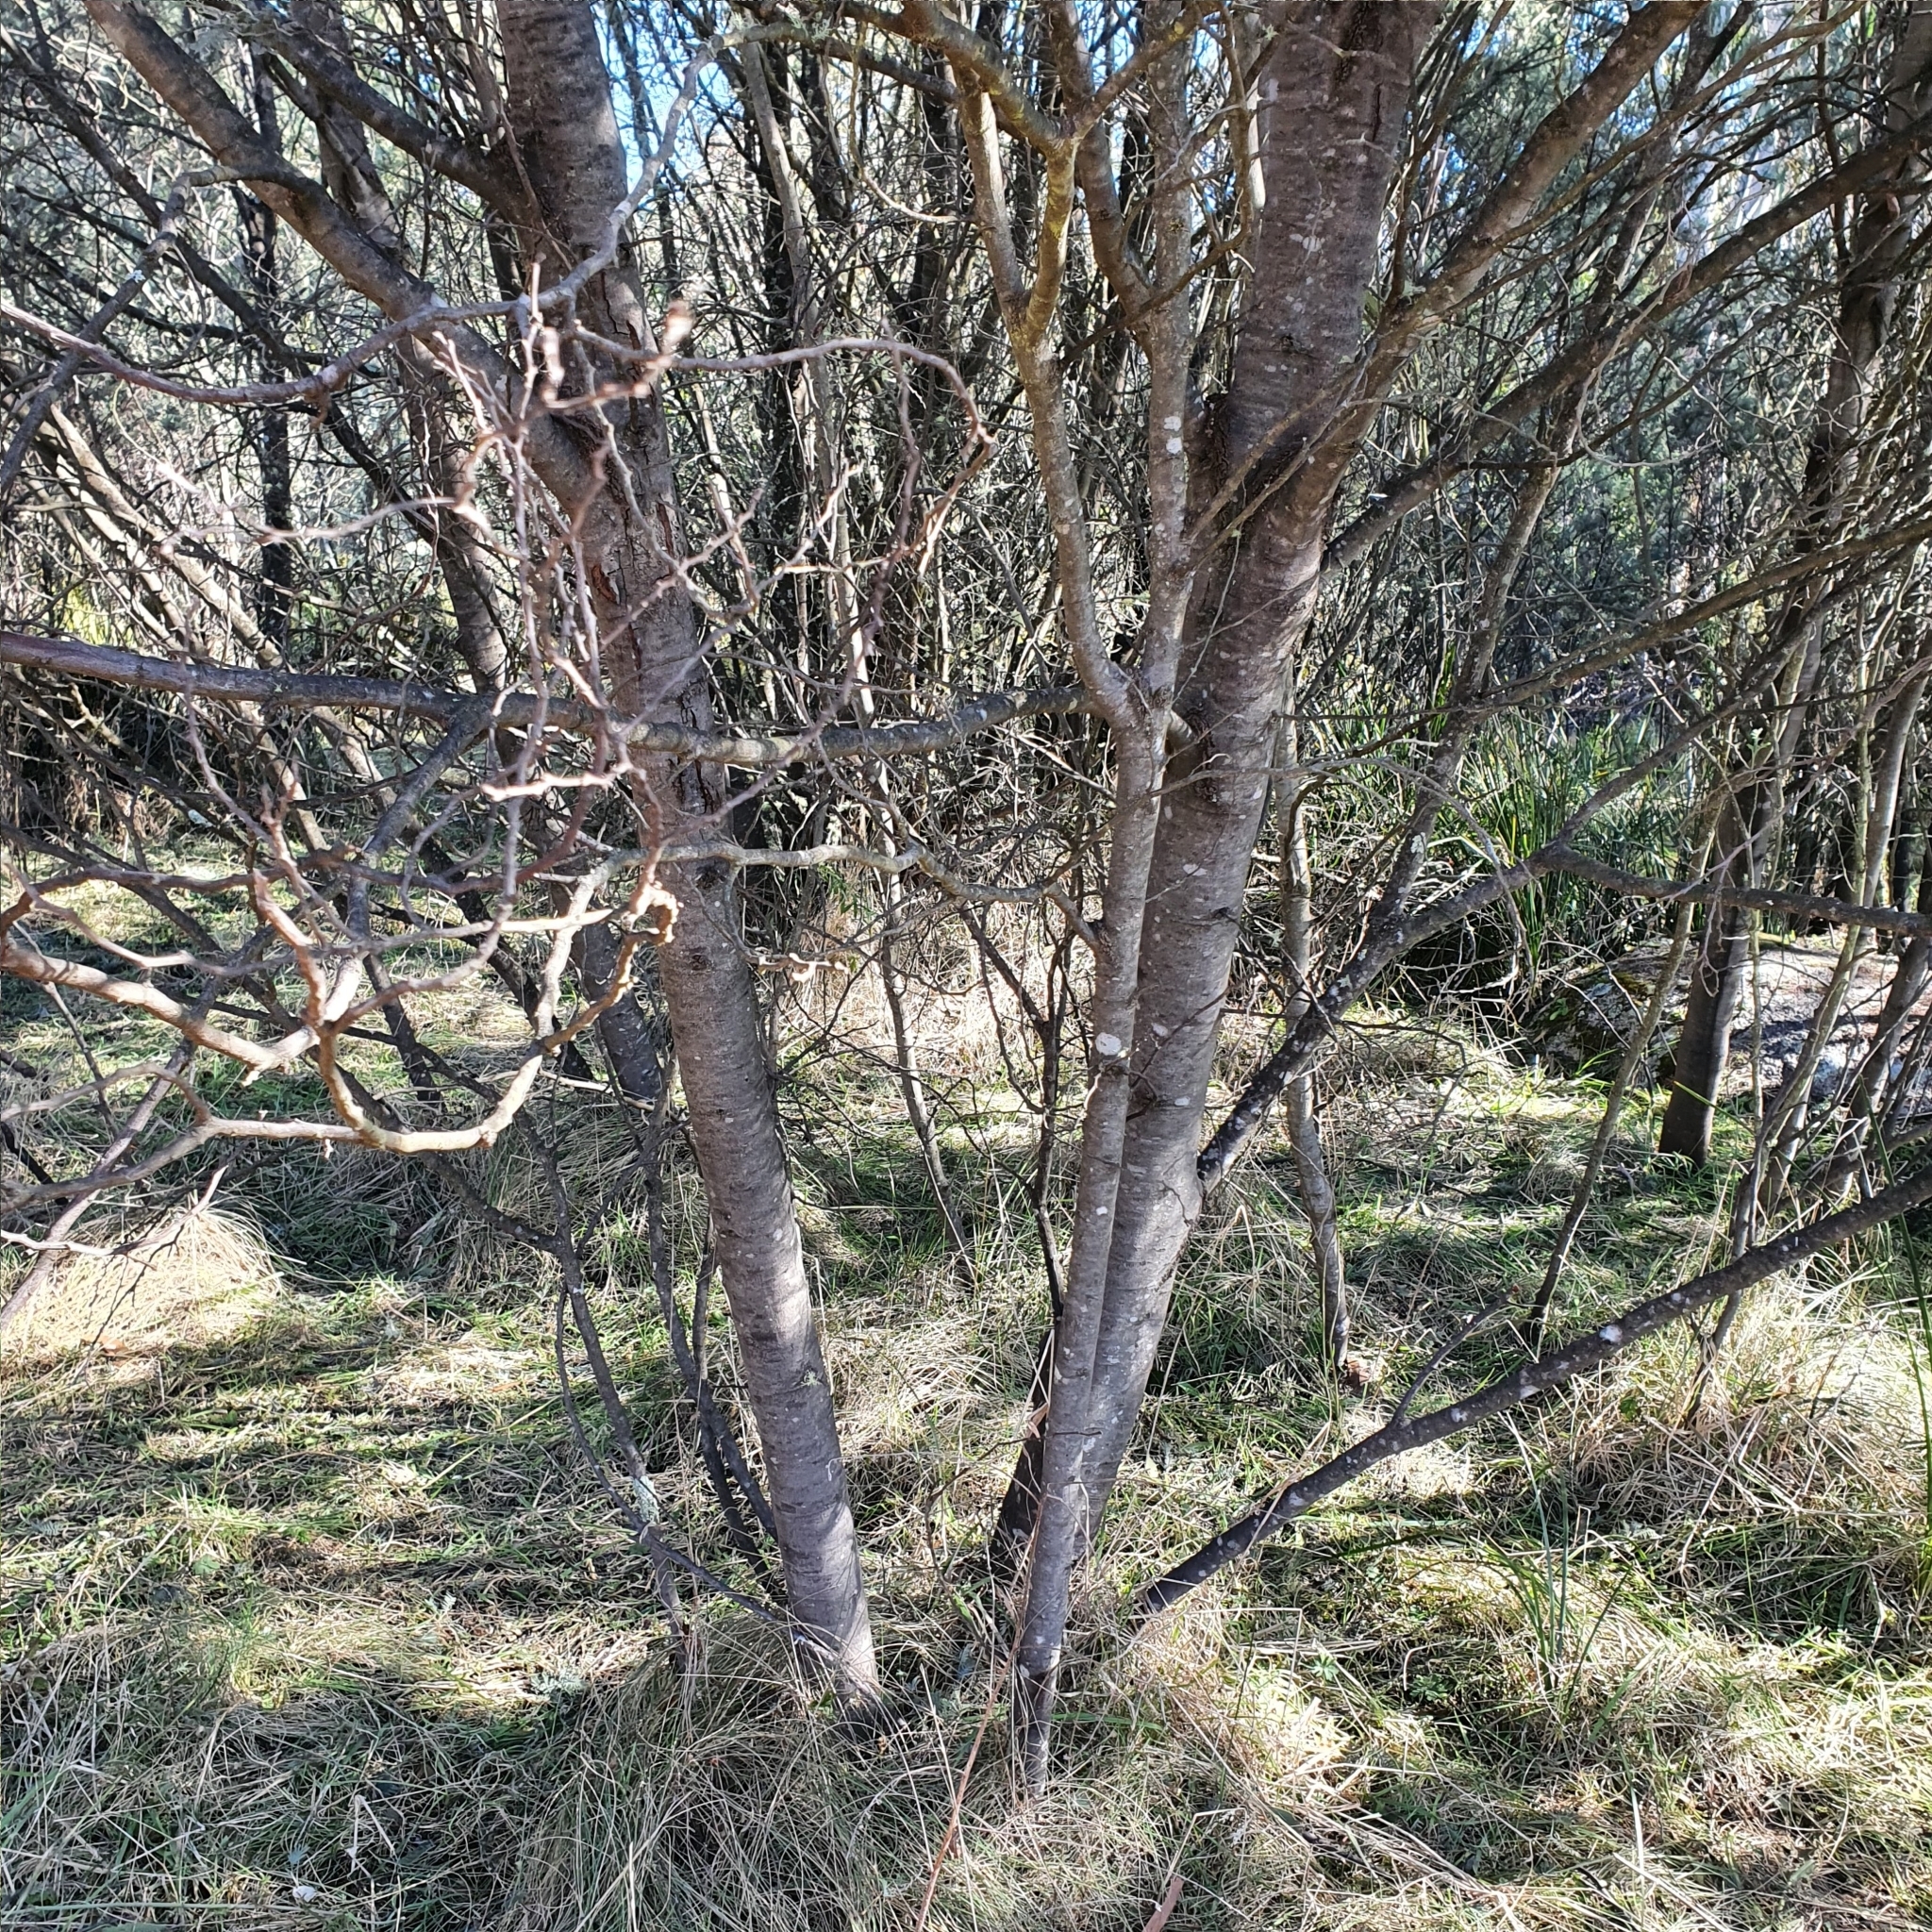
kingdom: Plantae
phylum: Tracheophyta
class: Magnoliopsida
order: Fabales
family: Fabaceae
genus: Acacia
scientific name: Acacia dealbata
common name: Silver wattle
